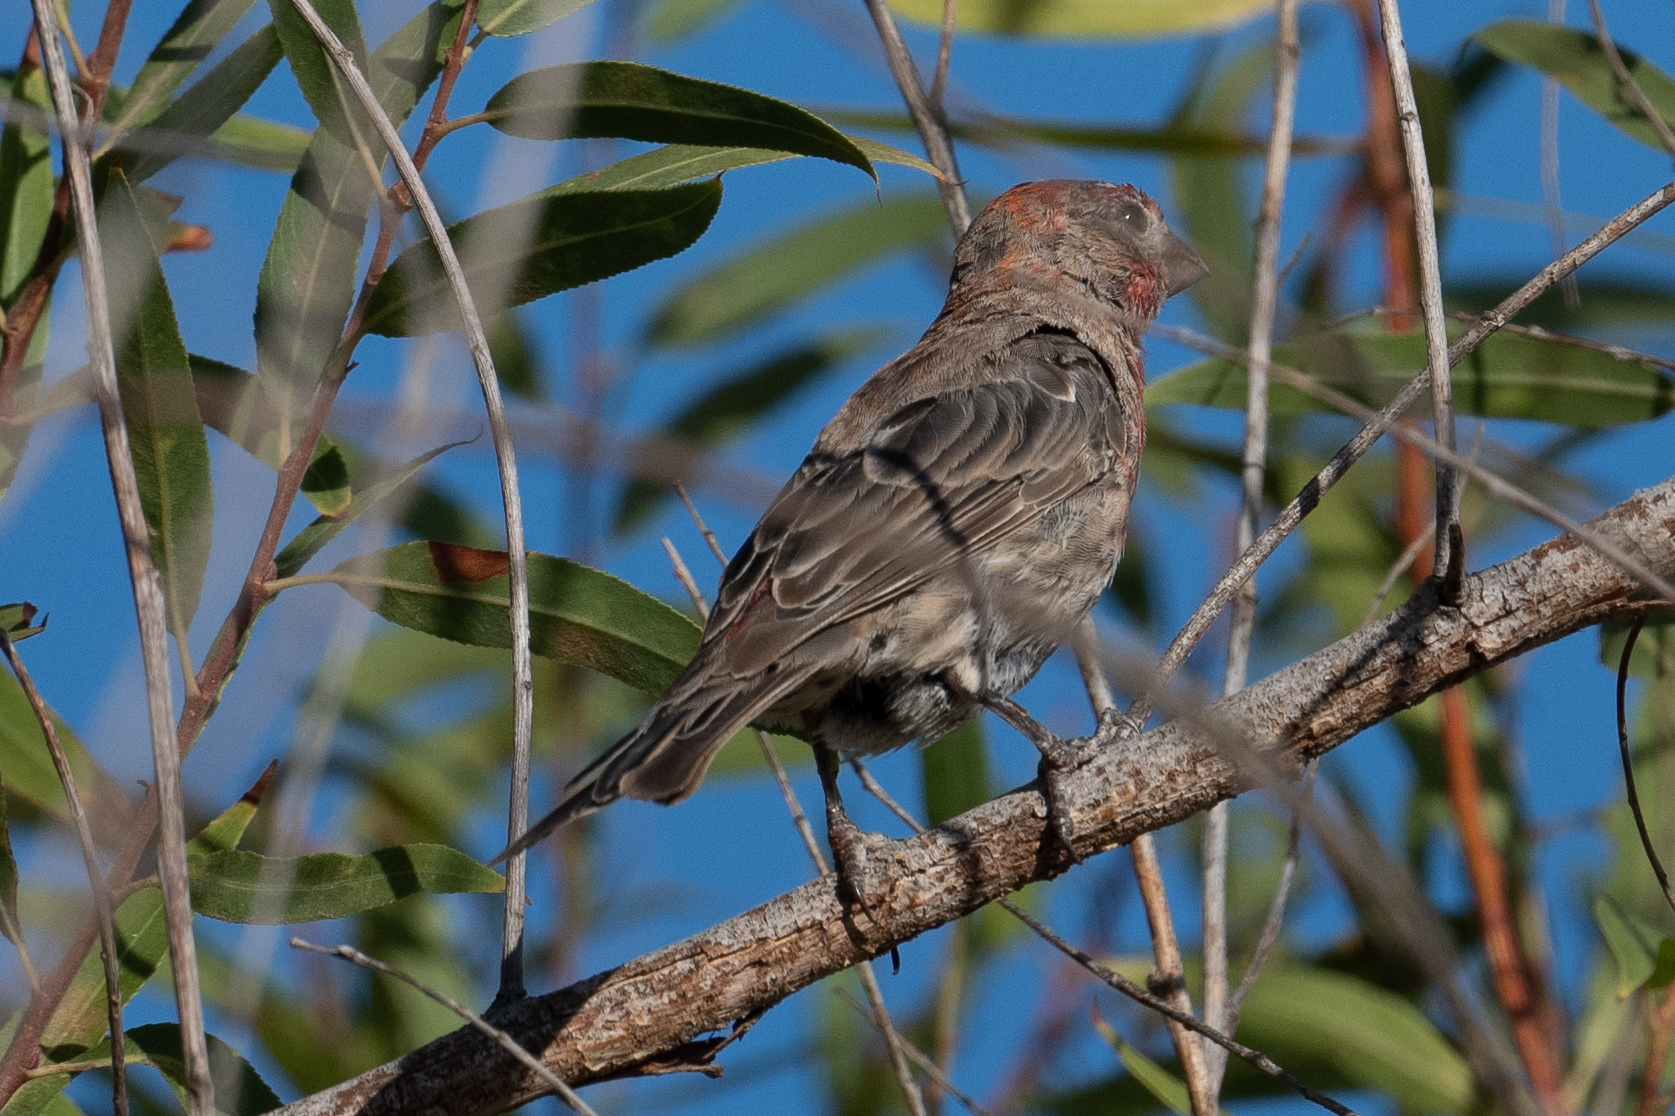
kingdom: Animalia
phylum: Chordata
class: Aves
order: Passeriformes
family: Fringillidae
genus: Haemorhous
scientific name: Haemorhous mexicanus
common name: House finch
